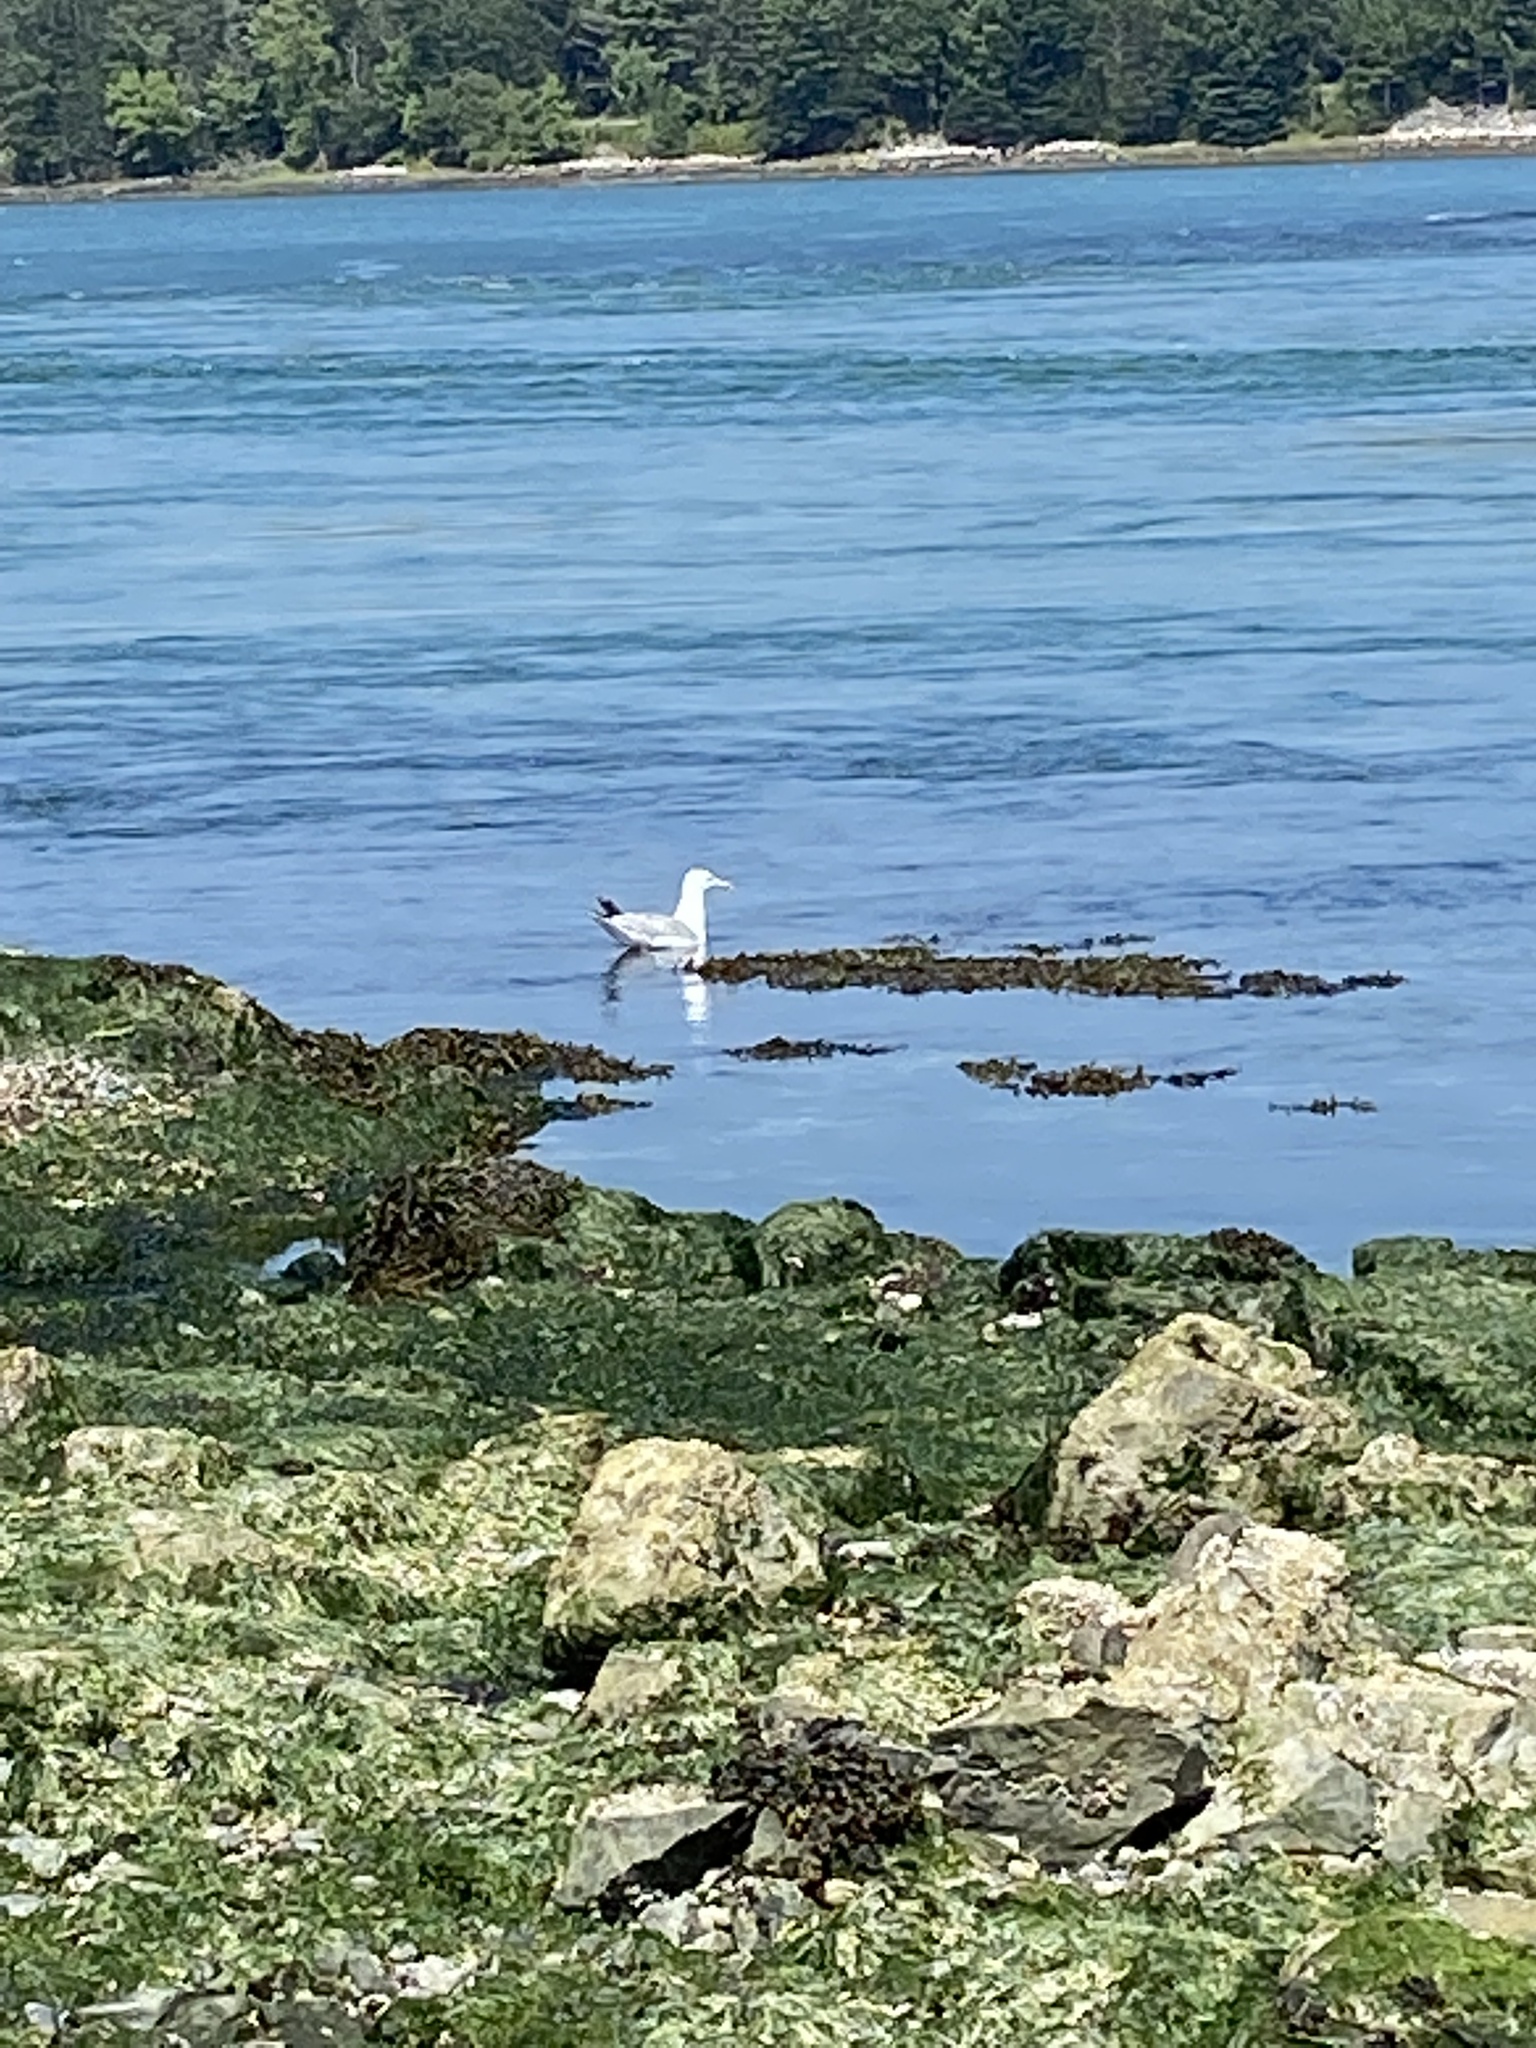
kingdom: Animalia
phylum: Chordata
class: Aves
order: Charadriiformes
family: Laridae
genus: Larus
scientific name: Larus argentatus
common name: Herring gull
